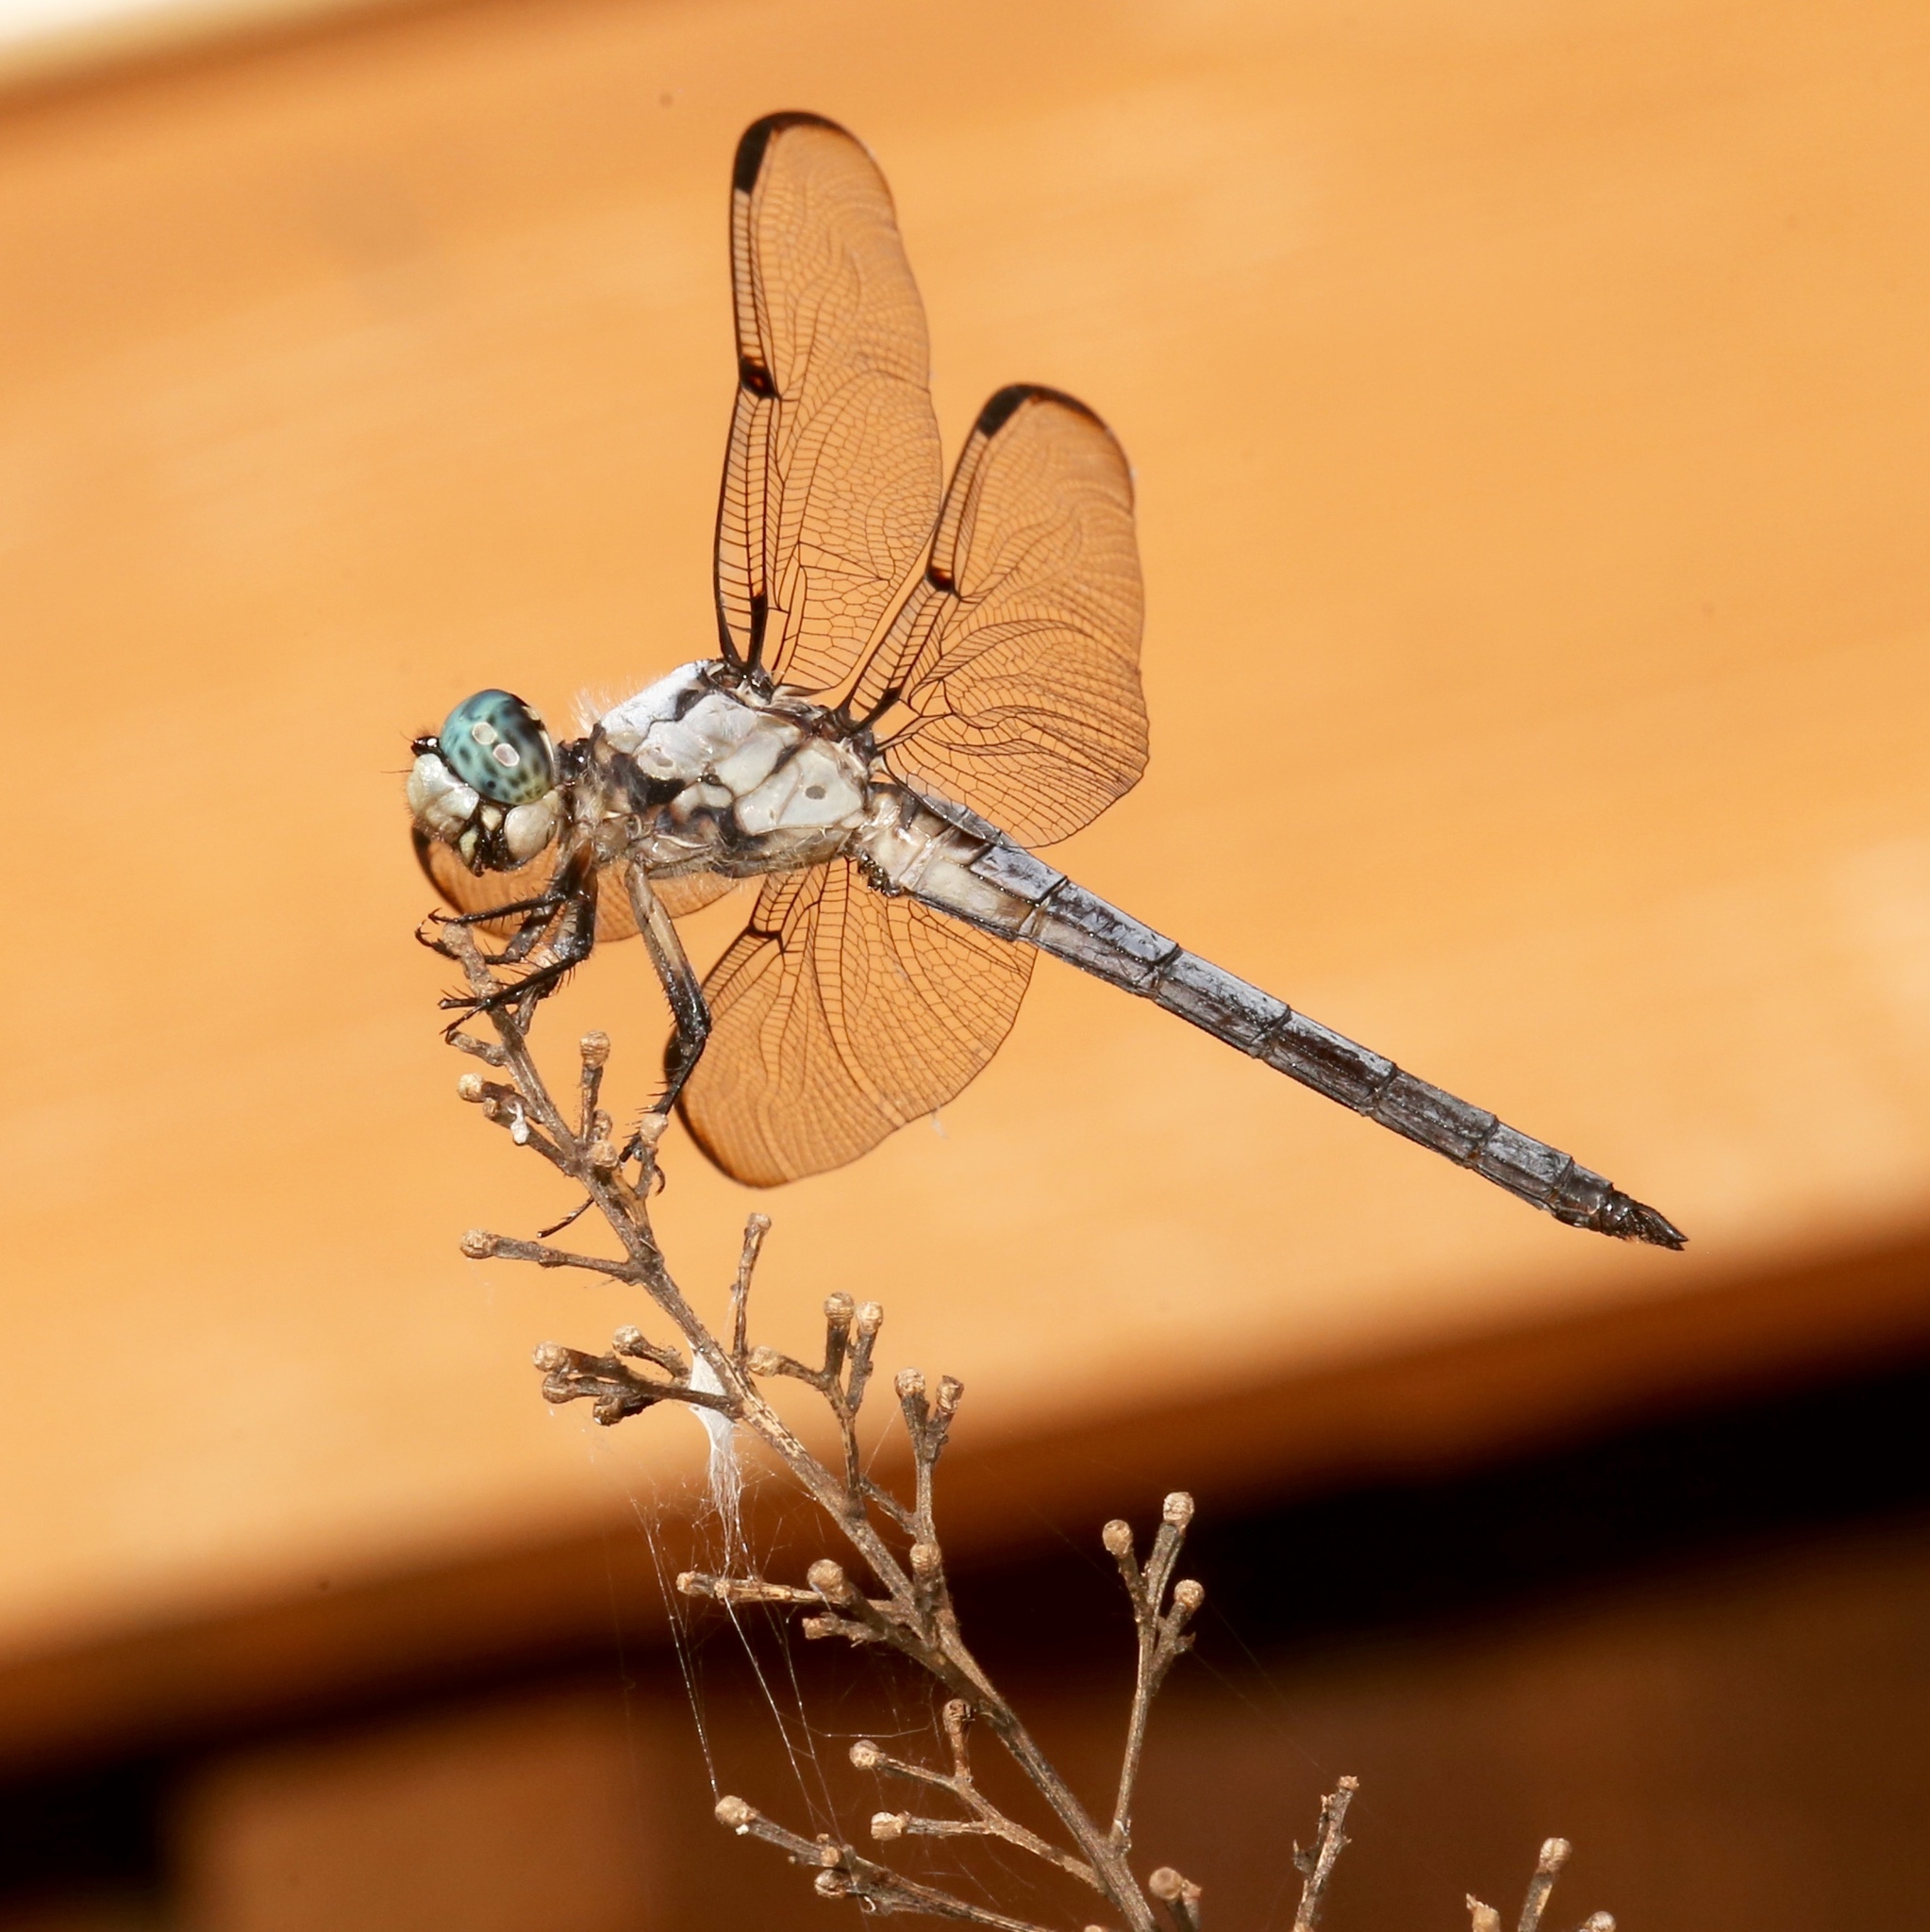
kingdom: Animalia
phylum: Arthropoda
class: Insecta
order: Odonata
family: Libellulidae
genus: Libellula
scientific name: Libellula vibrans
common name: Great blue skimmer
